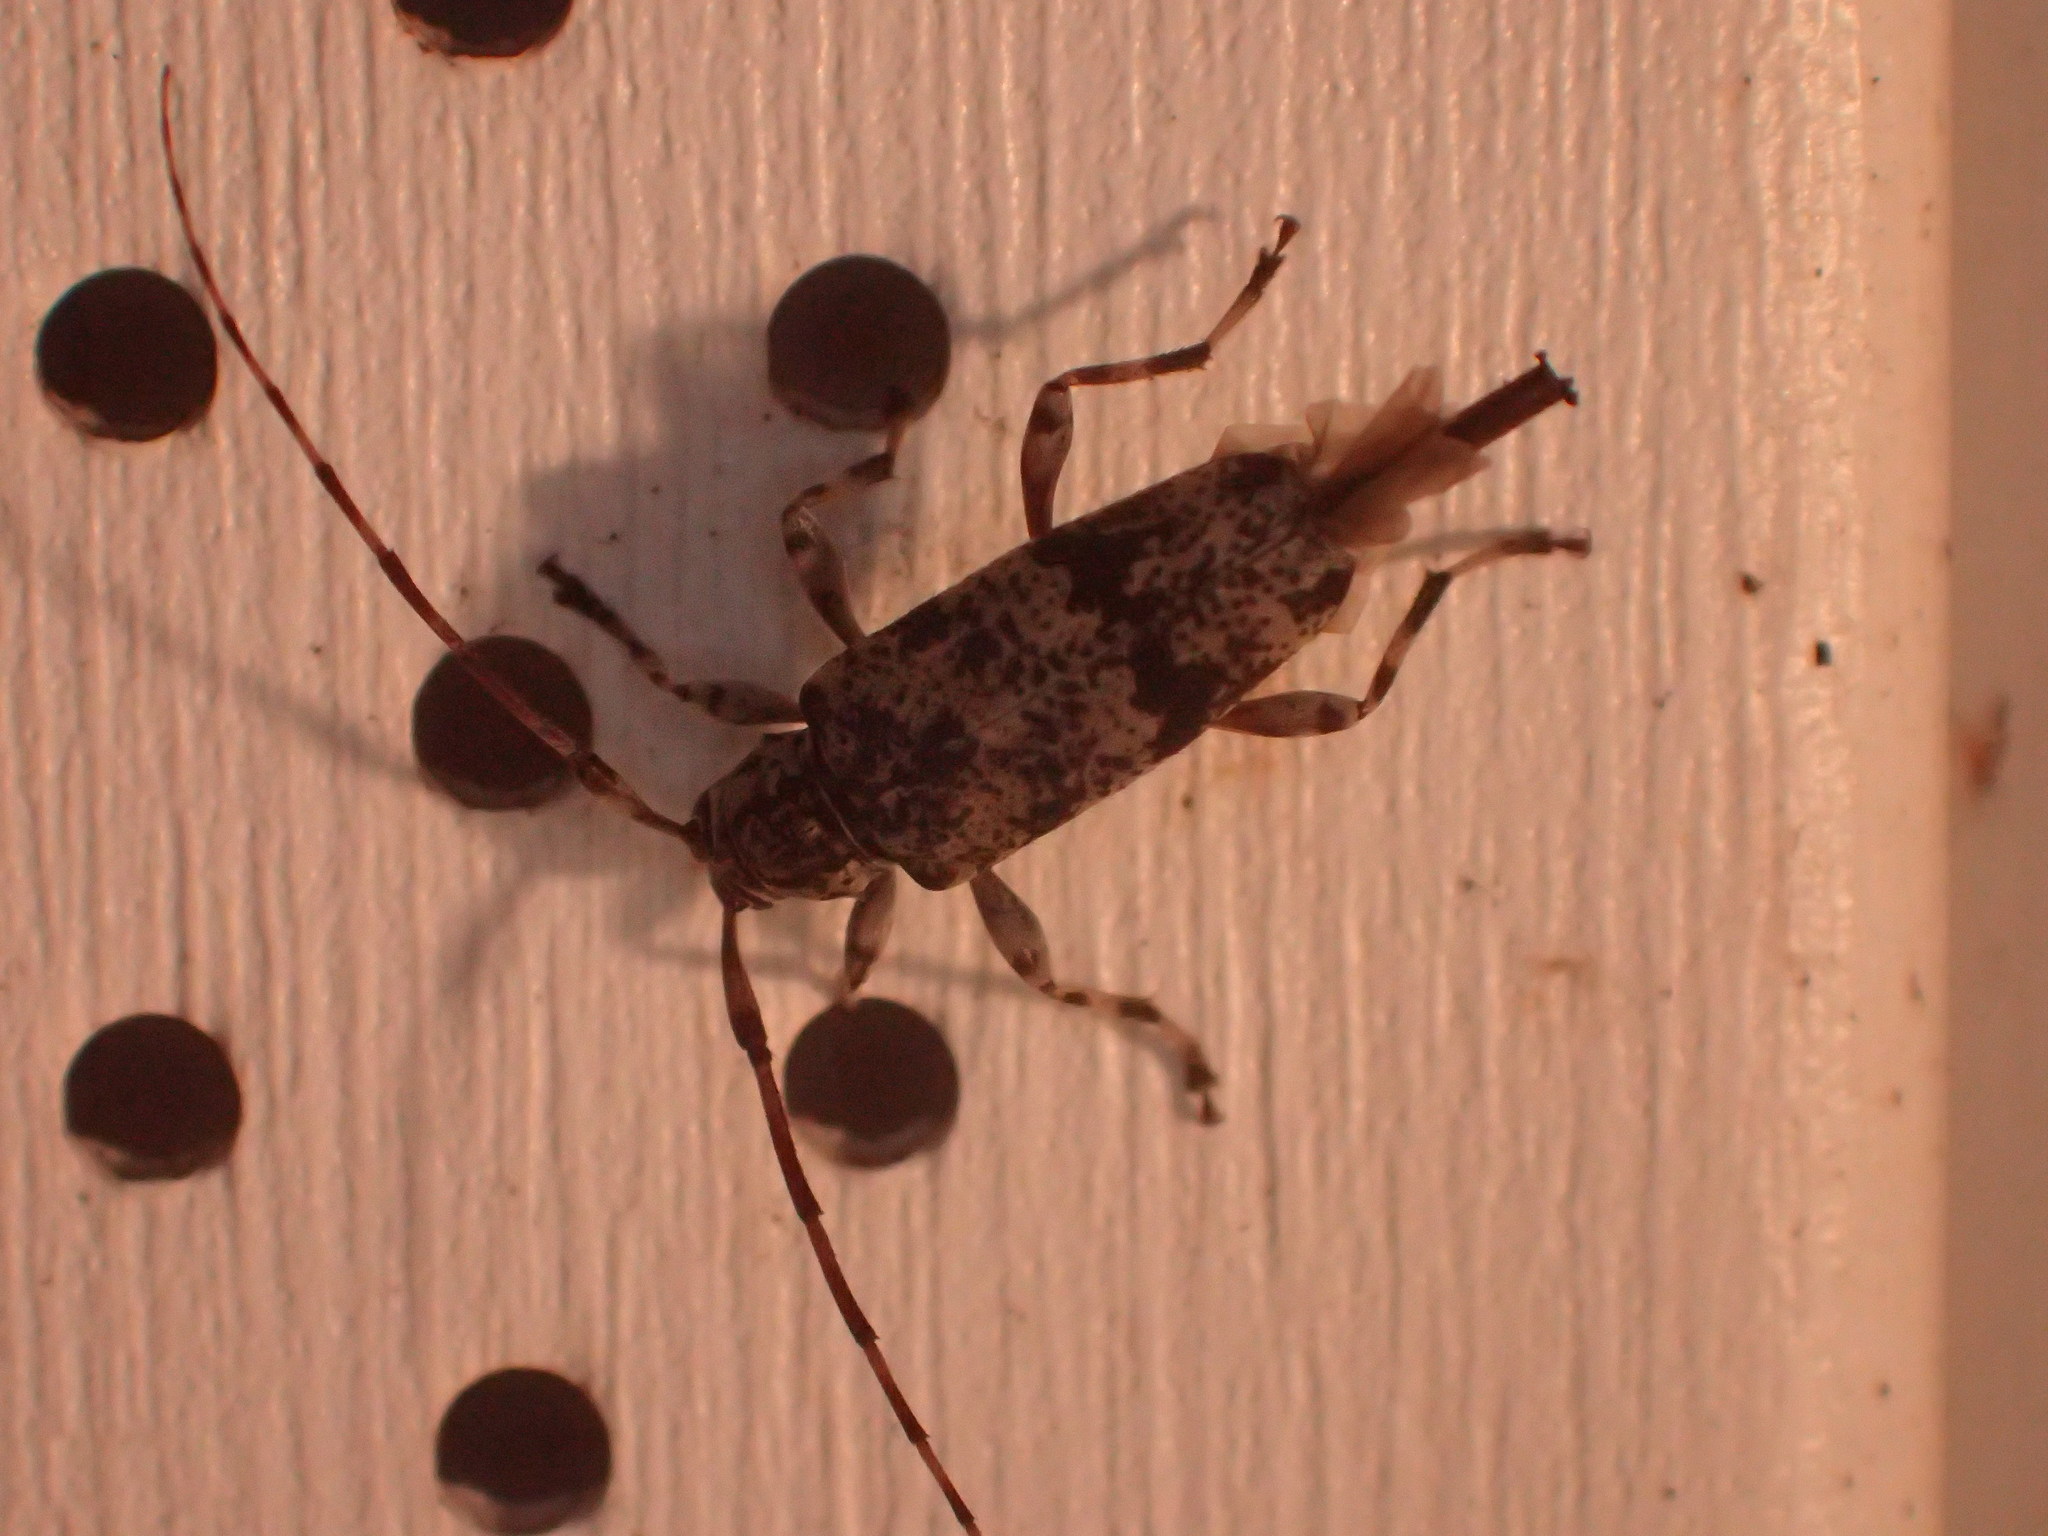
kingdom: Animalia
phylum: Arthropoda
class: Insecta
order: Coleoptera
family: Cerambycidae
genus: Graphisurus
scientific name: Graphisurus fasciatus
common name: Banded graphisurus
